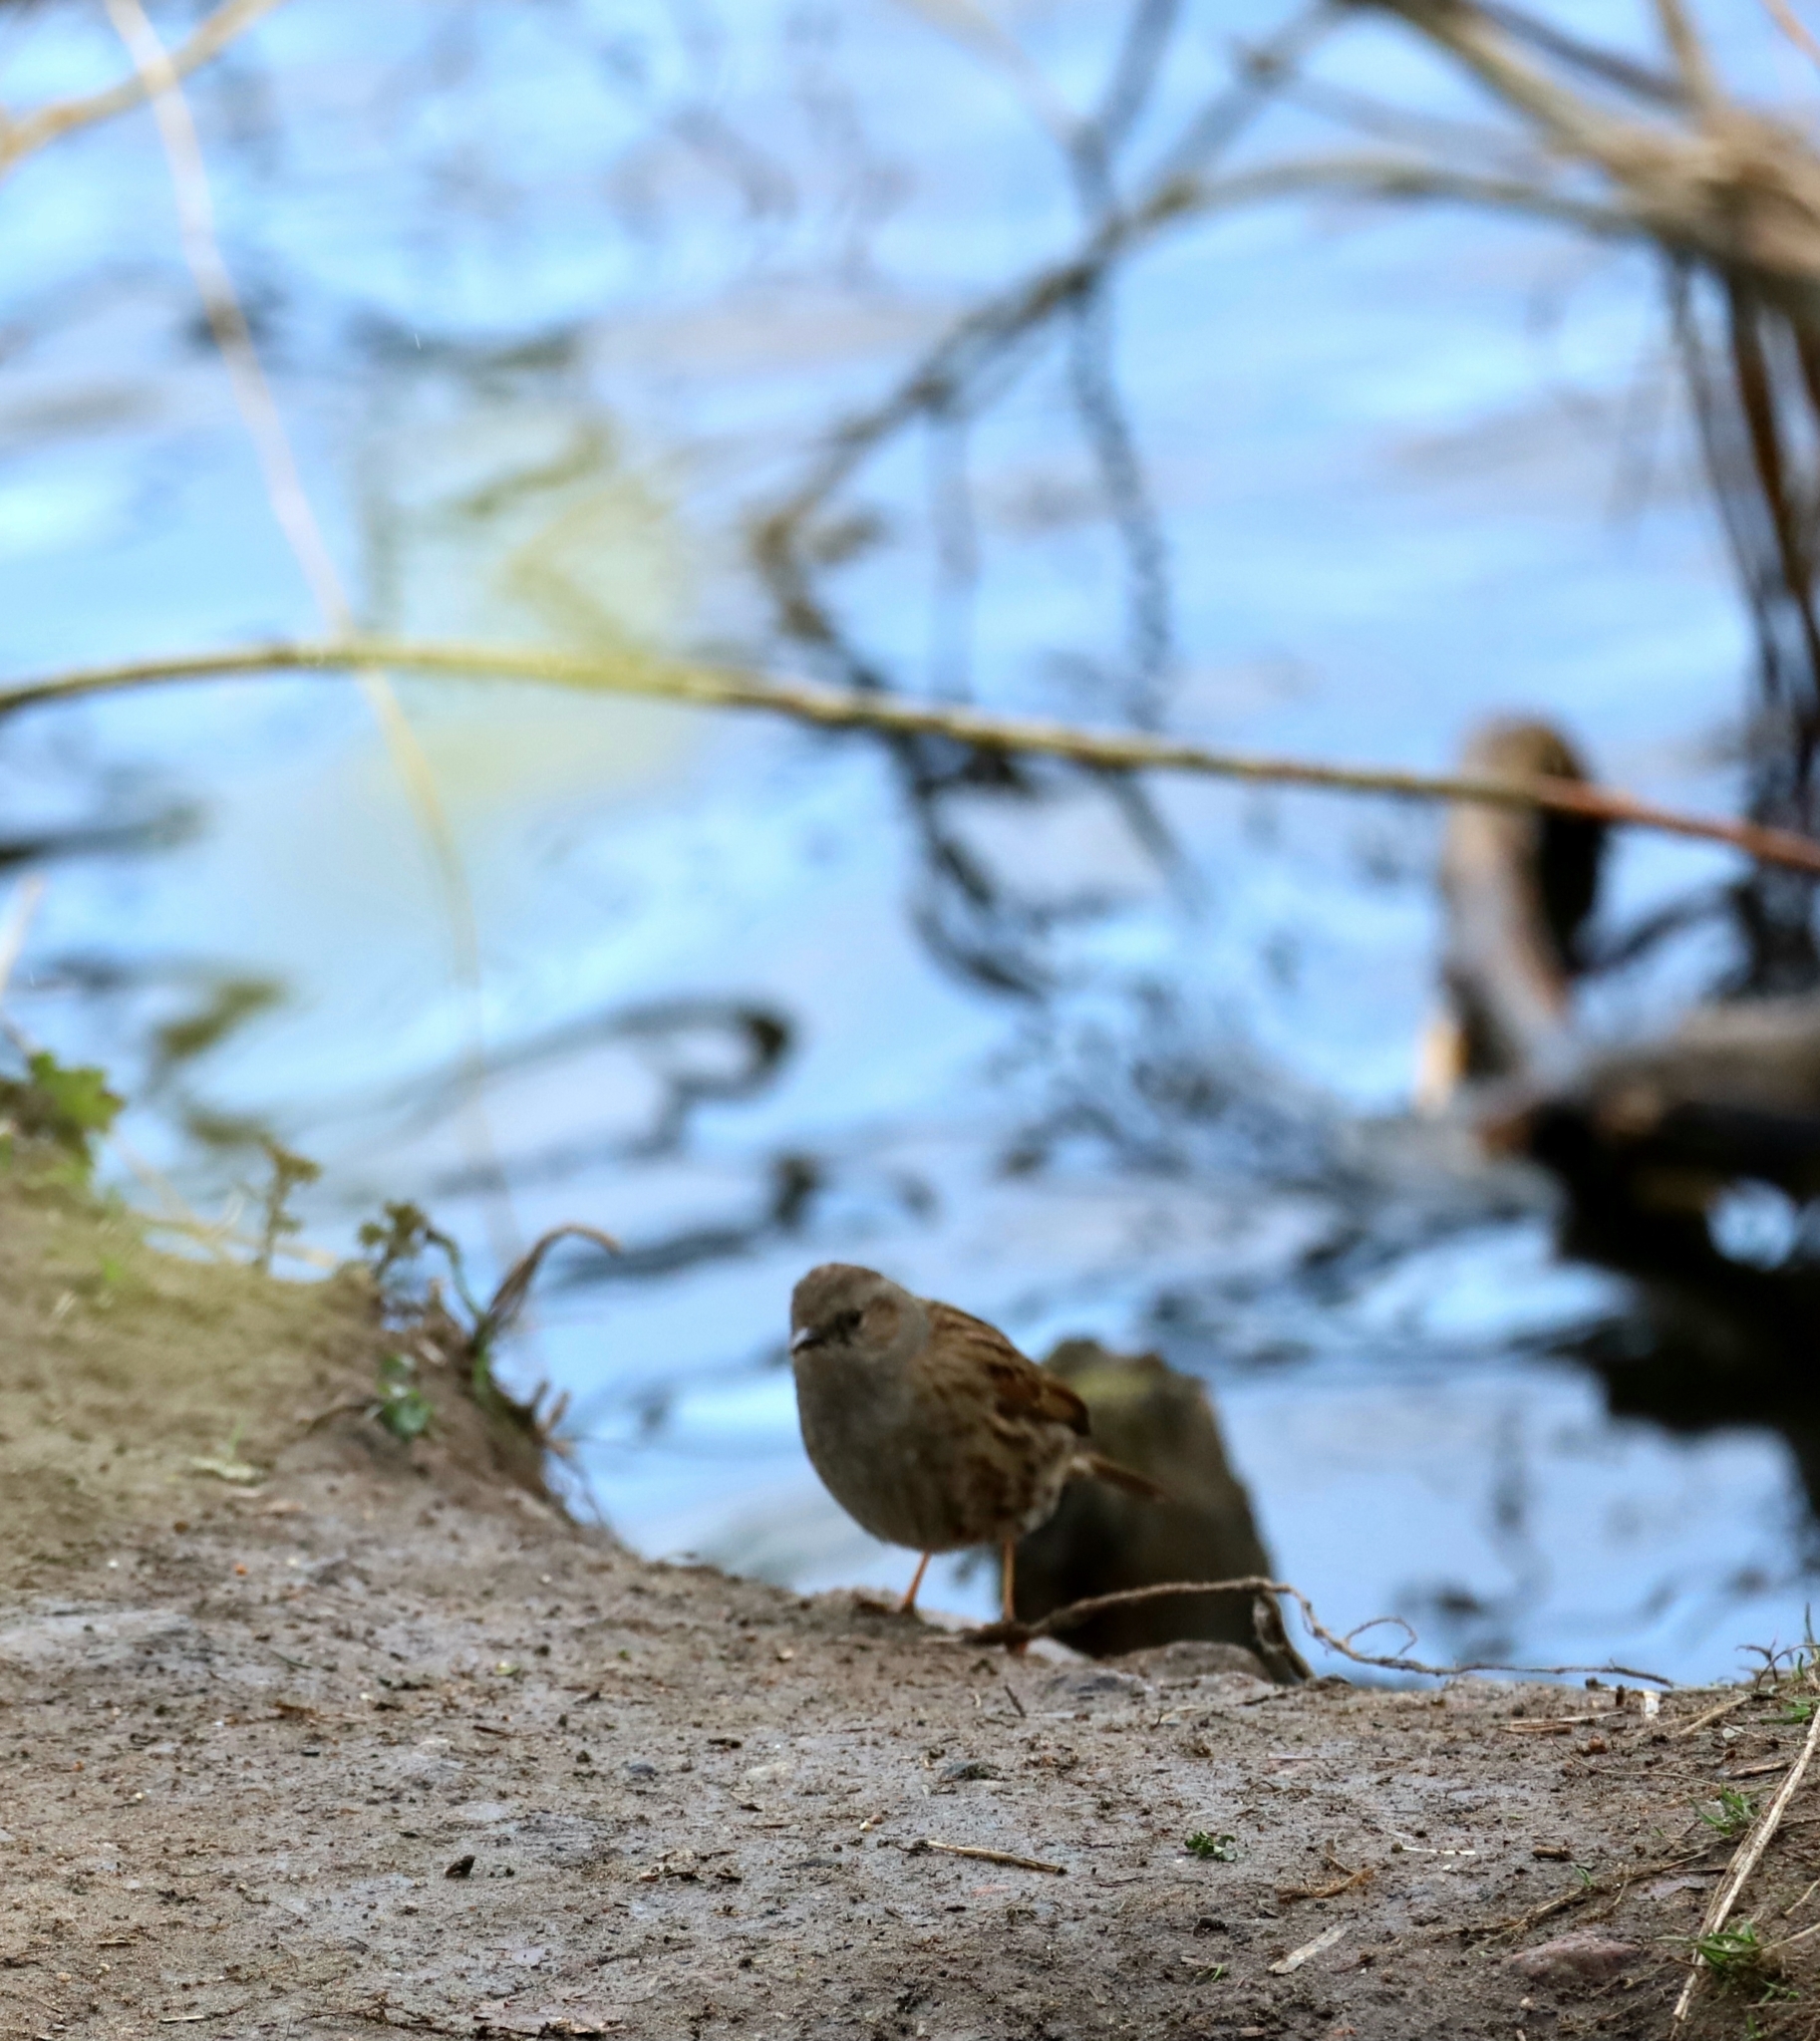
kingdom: Animalia
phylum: Chordata
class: Aves
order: Passeriformes
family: Prunellidae
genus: Prunella
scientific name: Prunella modularis
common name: Dunnock
